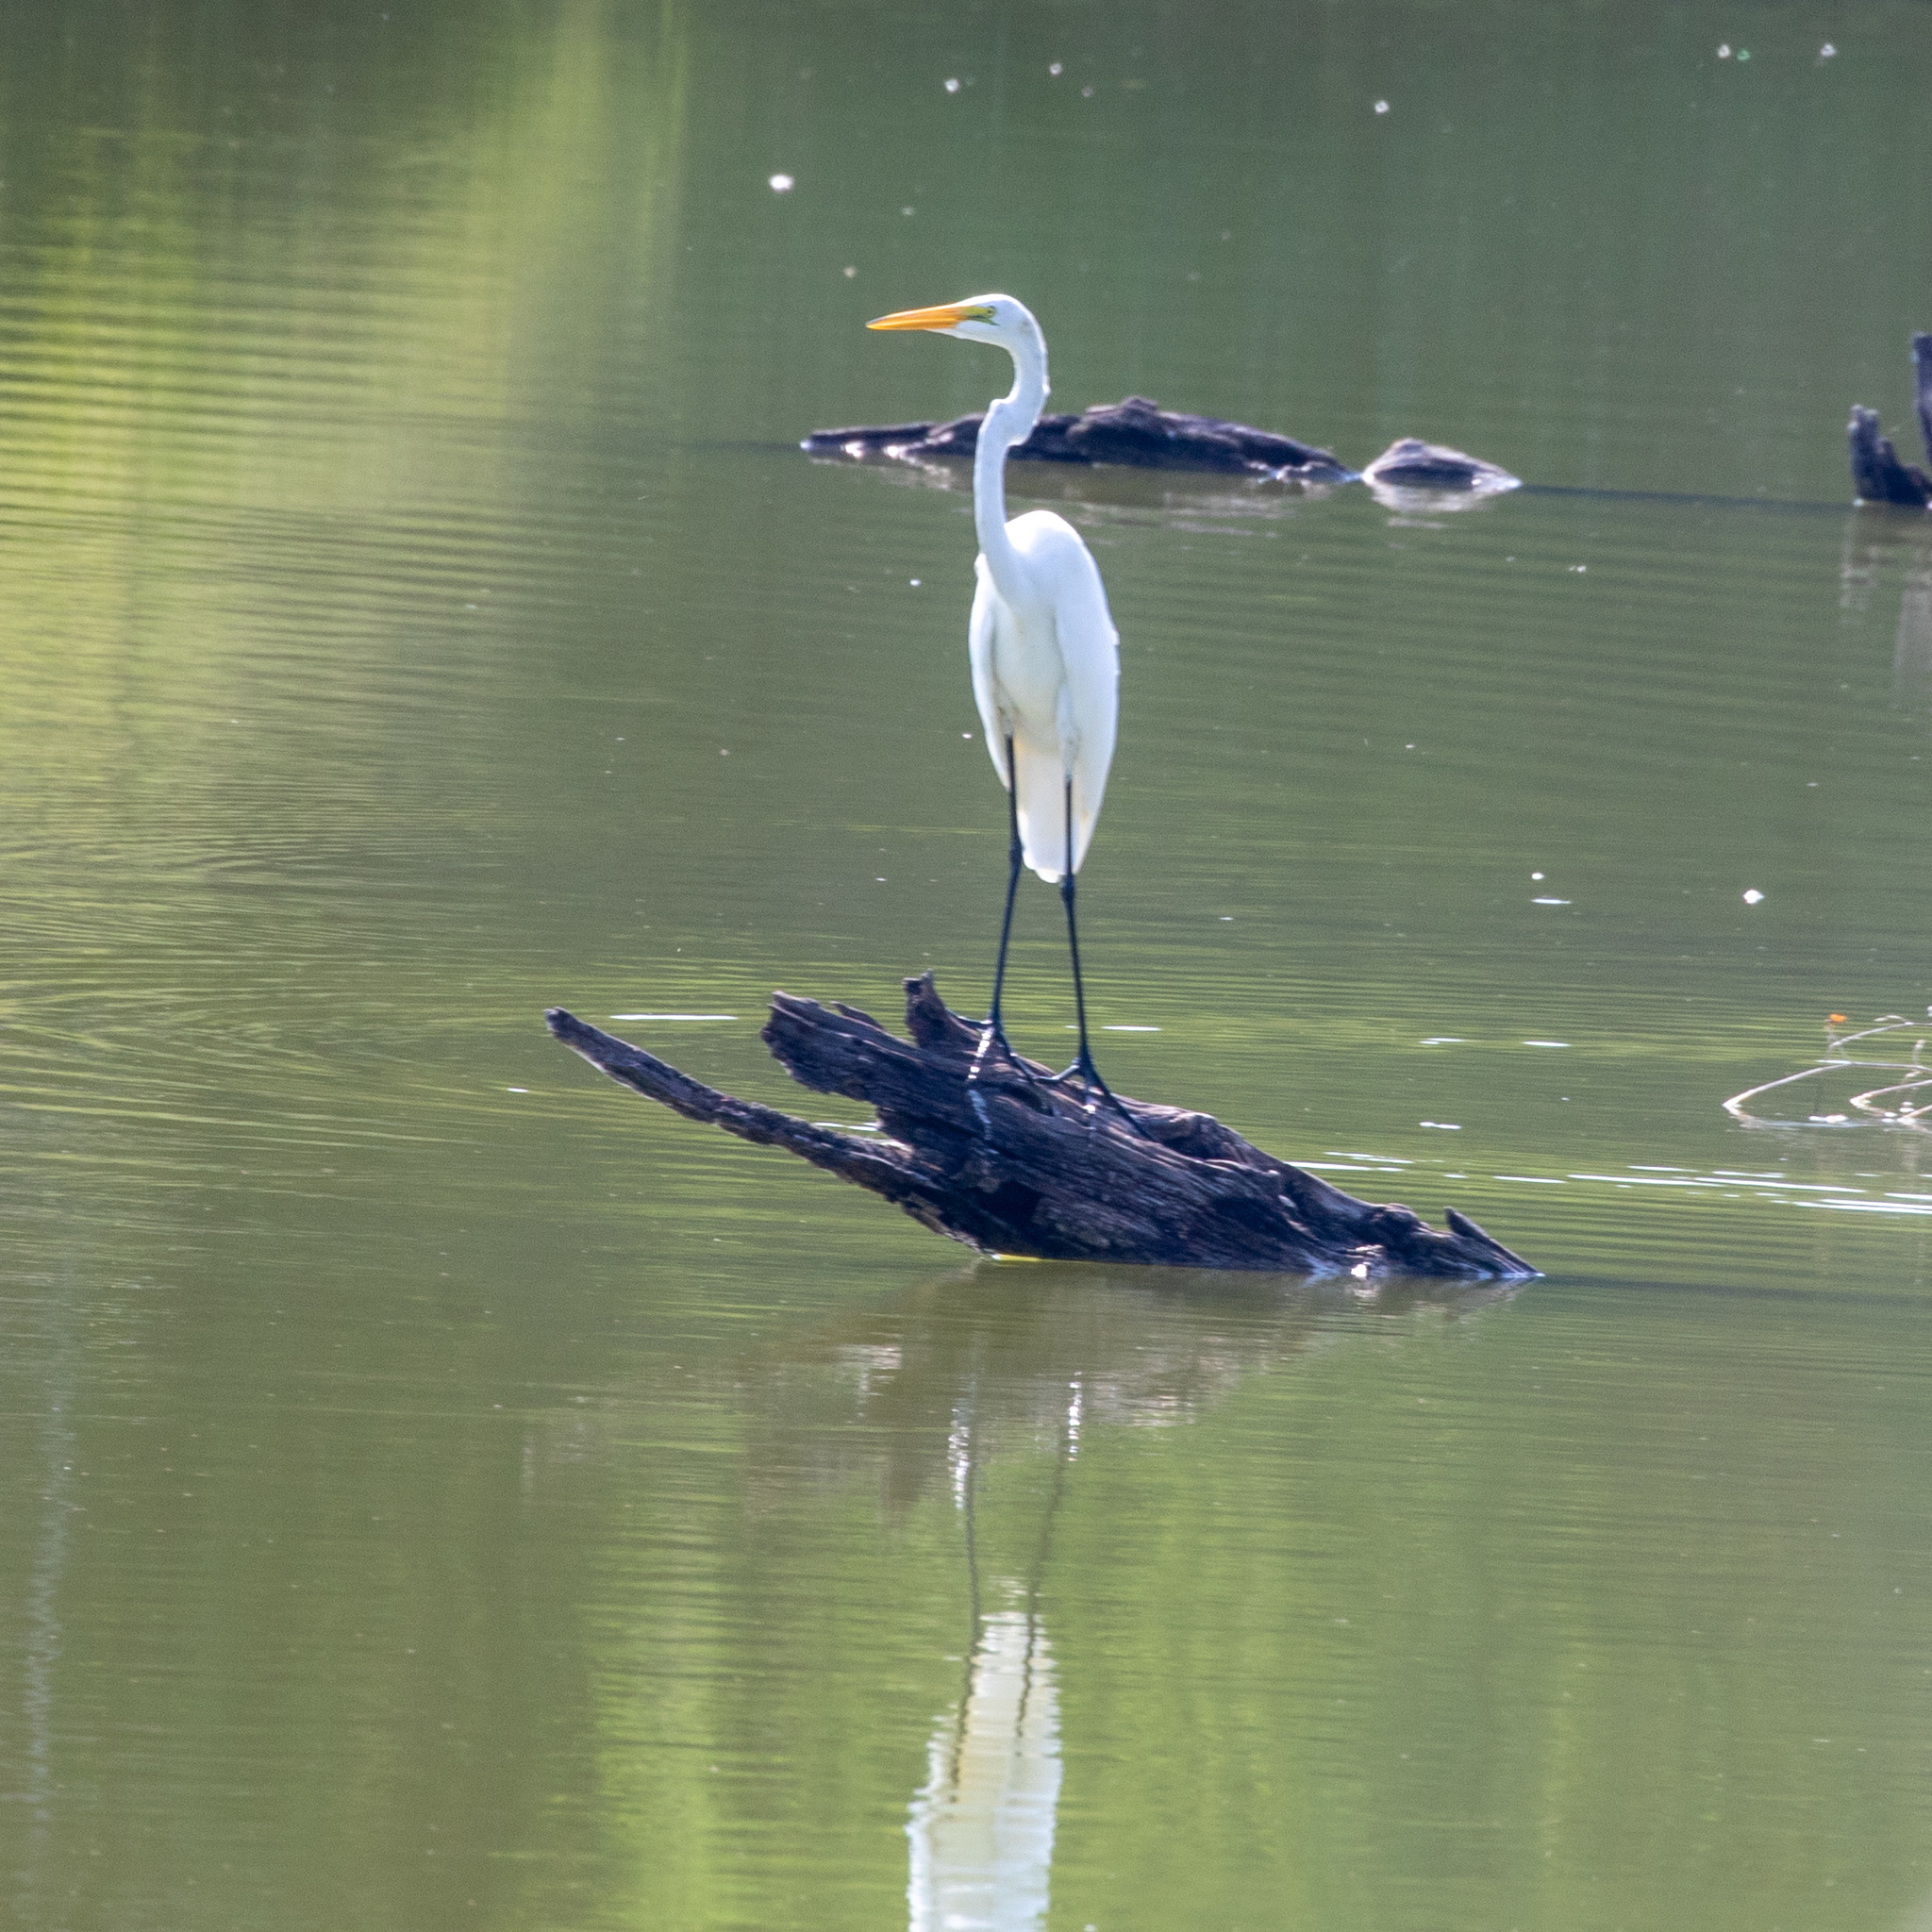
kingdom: Animalia
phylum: Chordata
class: Aves
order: Pelecaniformes
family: Ardeidae
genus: Ardea
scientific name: Ardea alba
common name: Great egret
